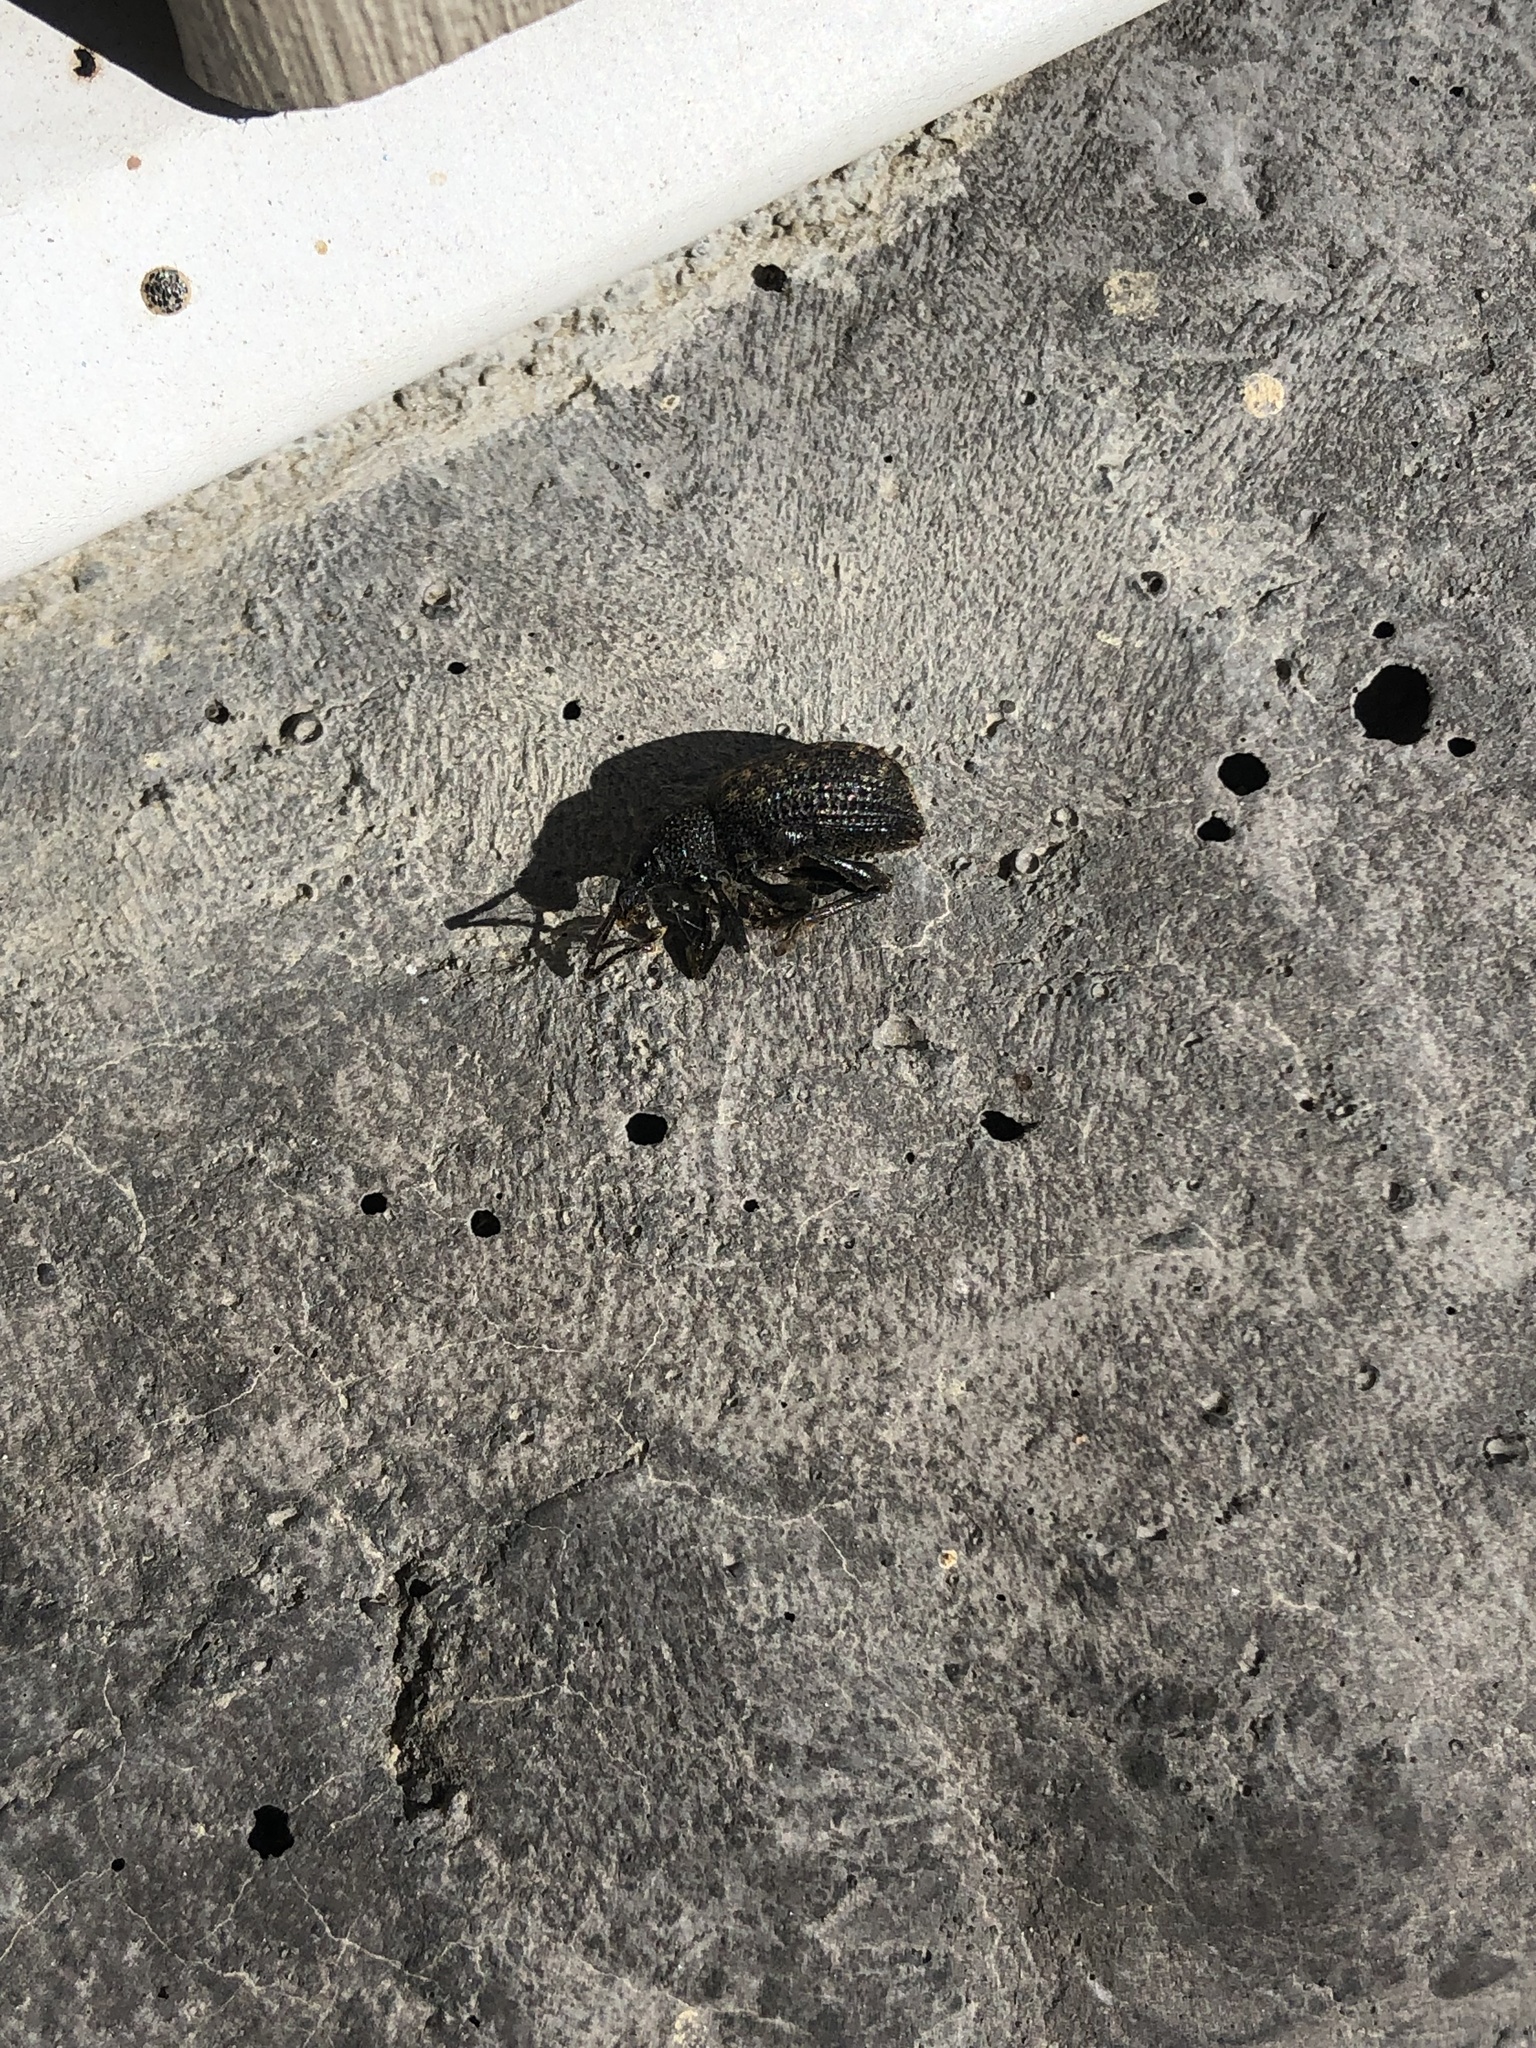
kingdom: Animalia
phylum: Arthropoda
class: Insecta
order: Coleoptera
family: Curculionidae
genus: Otiorhynchus
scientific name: Otiorhynchus sulcatus
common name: Black vine weevil
